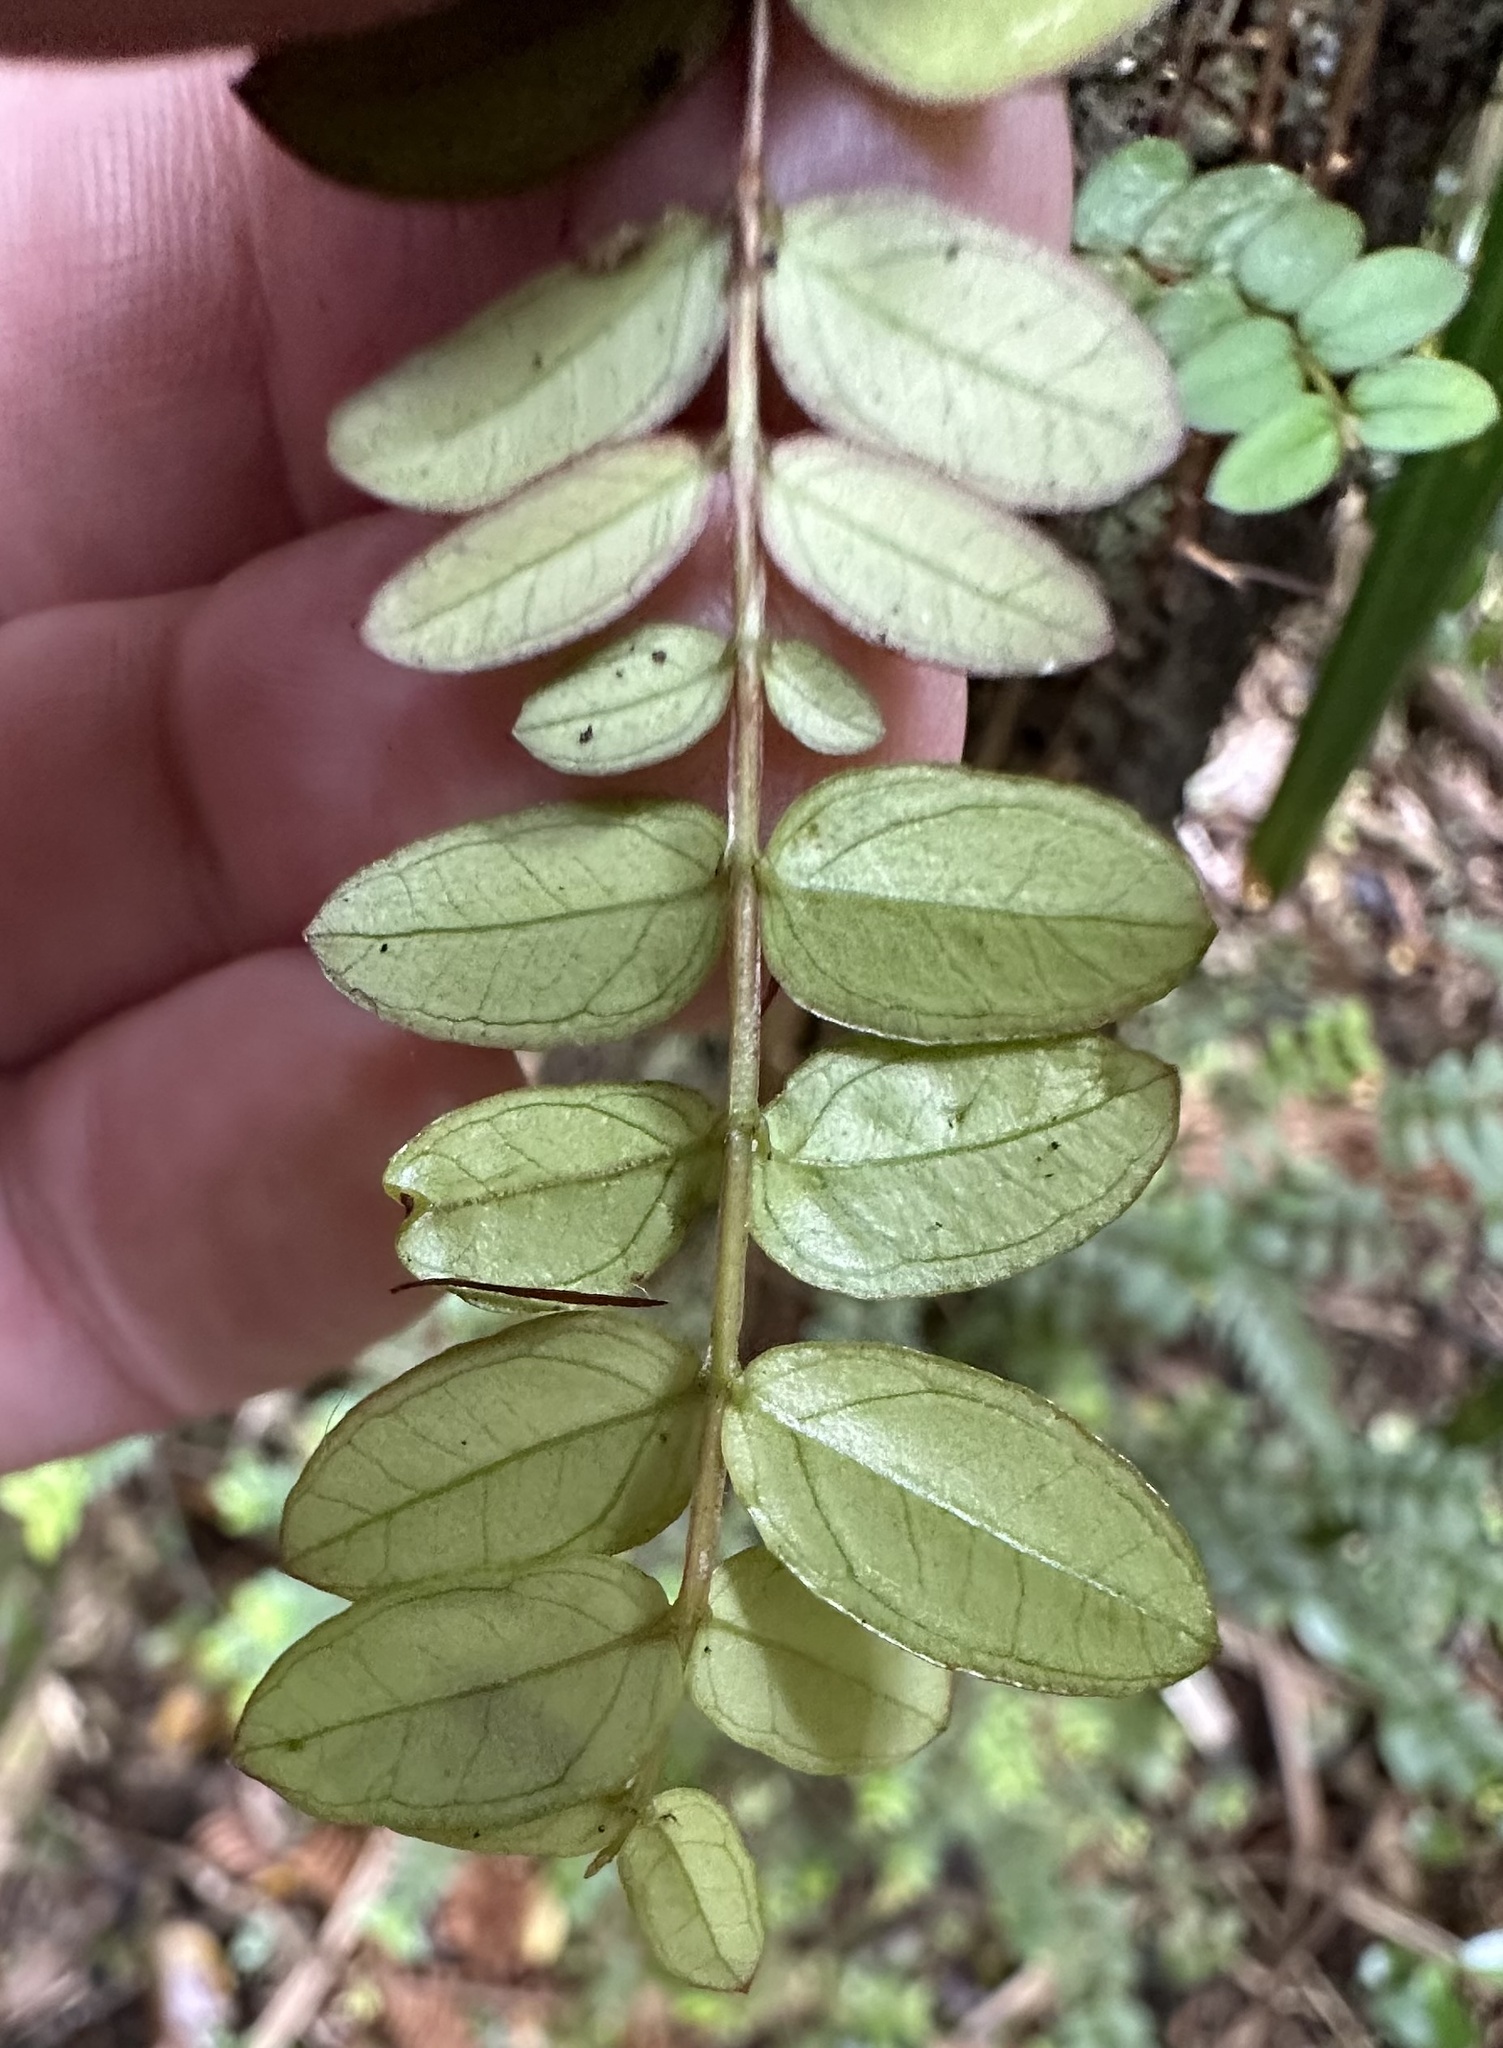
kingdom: Plantae
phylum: Tracheophyta
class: Magnoliopsida
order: Myrtales
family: Myrtaceae
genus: Metrosideros
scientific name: Metrosideros diffusa
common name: Small ratavine
